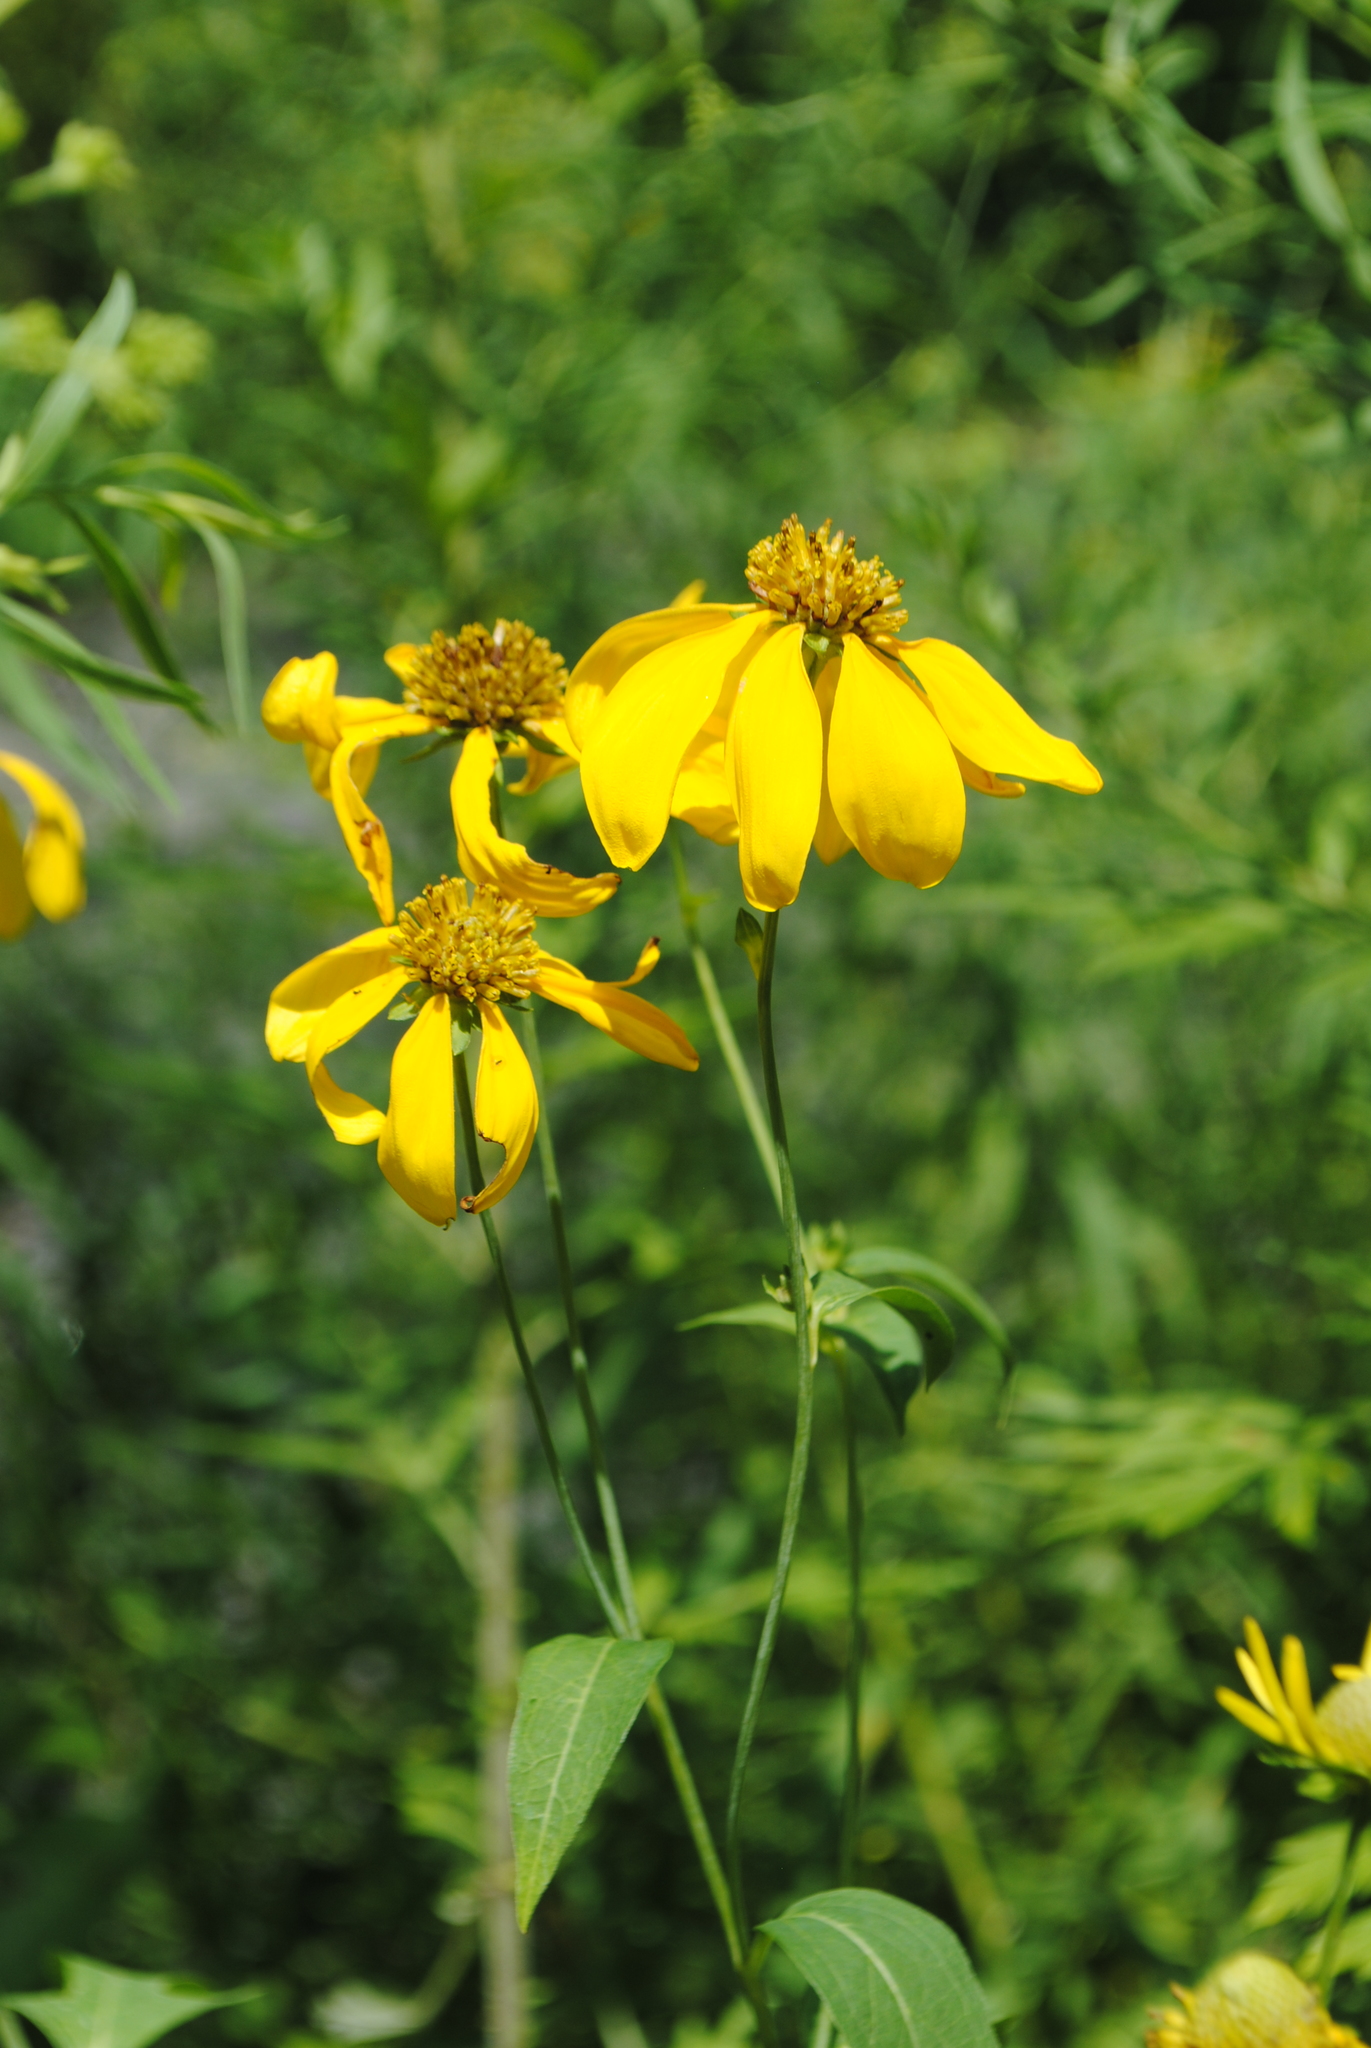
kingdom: Plantae
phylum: Tracheophyta
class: Magnoliopsida
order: Asterales
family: Asteraceae
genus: Rudbeckia
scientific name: Rudbeckia laciniata
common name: Coneflower
